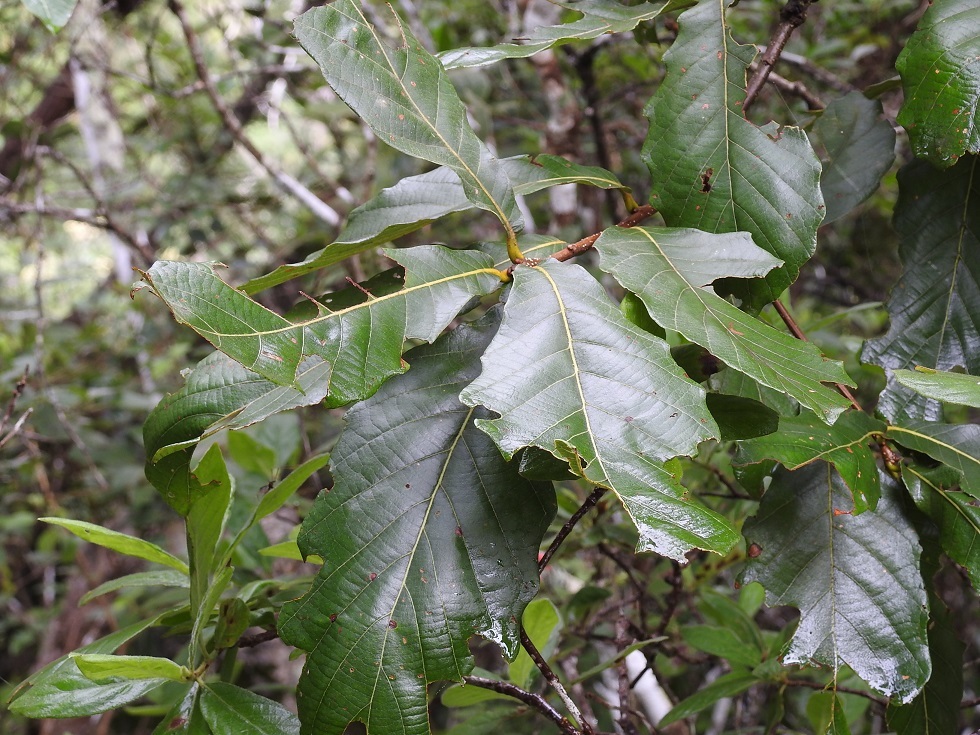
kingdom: Plantae
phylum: Tracheophyta
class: Magnoliopsida
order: Fagales
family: Fagaceae
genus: Quercus
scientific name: Quercus purulhana
